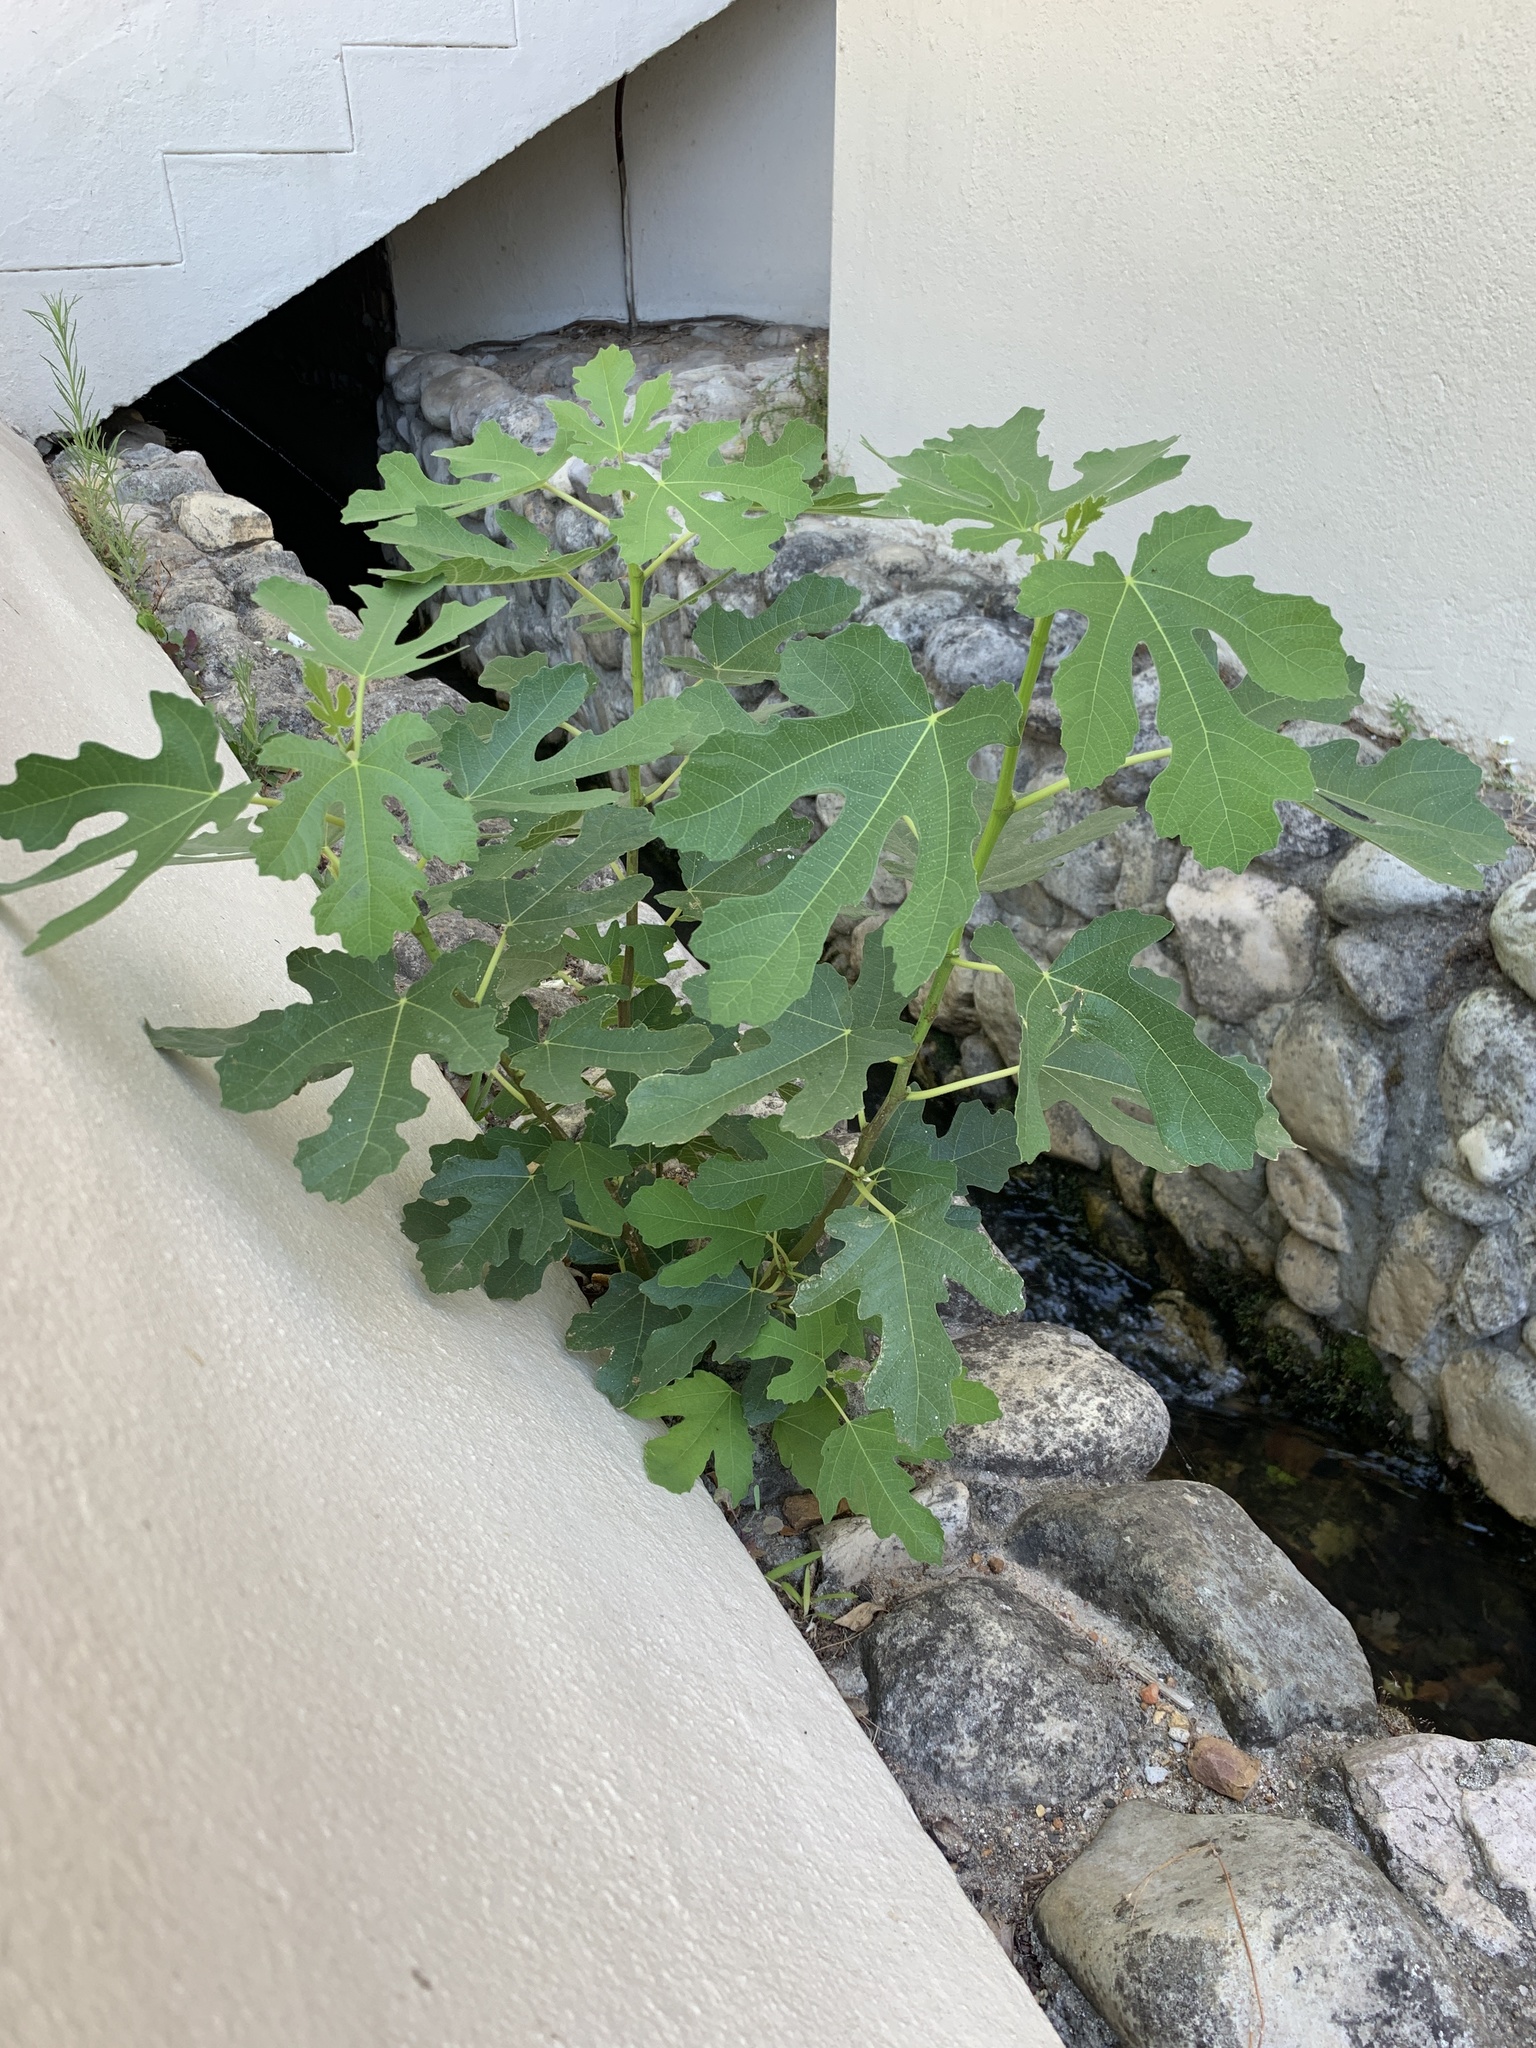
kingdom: Plantae
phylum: Tracheophyta
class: Magnoliopsida
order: Rosales
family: Moraceae
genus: Ficus
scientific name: Ficus carica
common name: Fig
